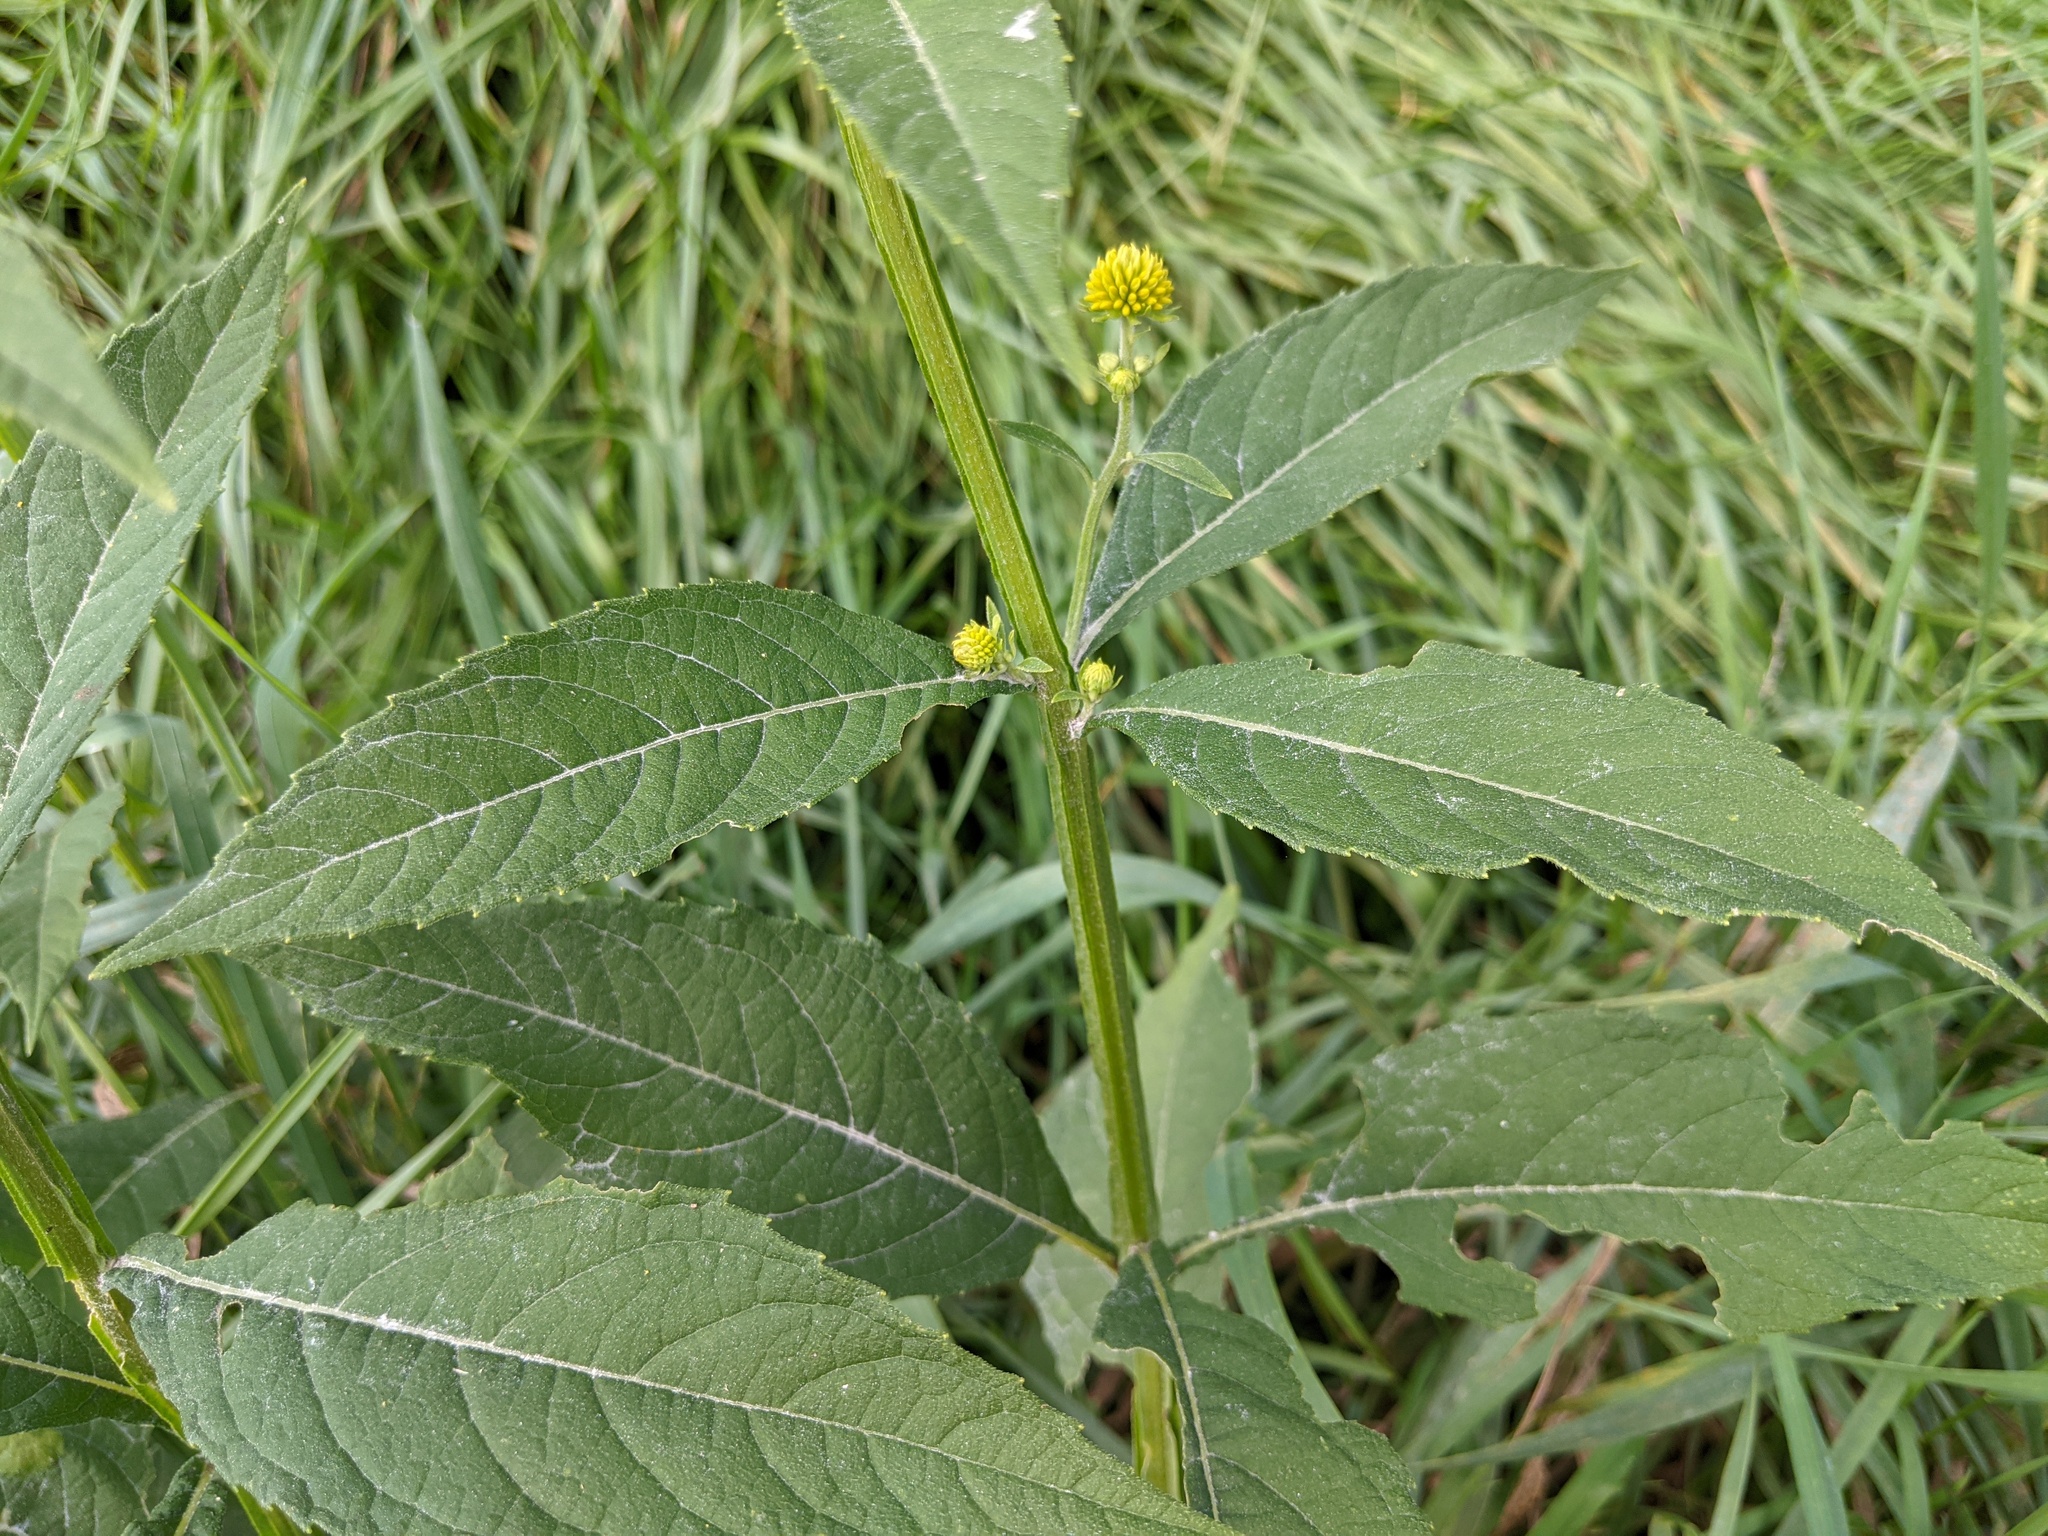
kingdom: Plantae
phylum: Tracheophyta
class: Magnoliopsida
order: Asterales
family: Asteraceae
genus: Verbesina
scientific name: Verbesina alternifolia
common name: Wingstem
